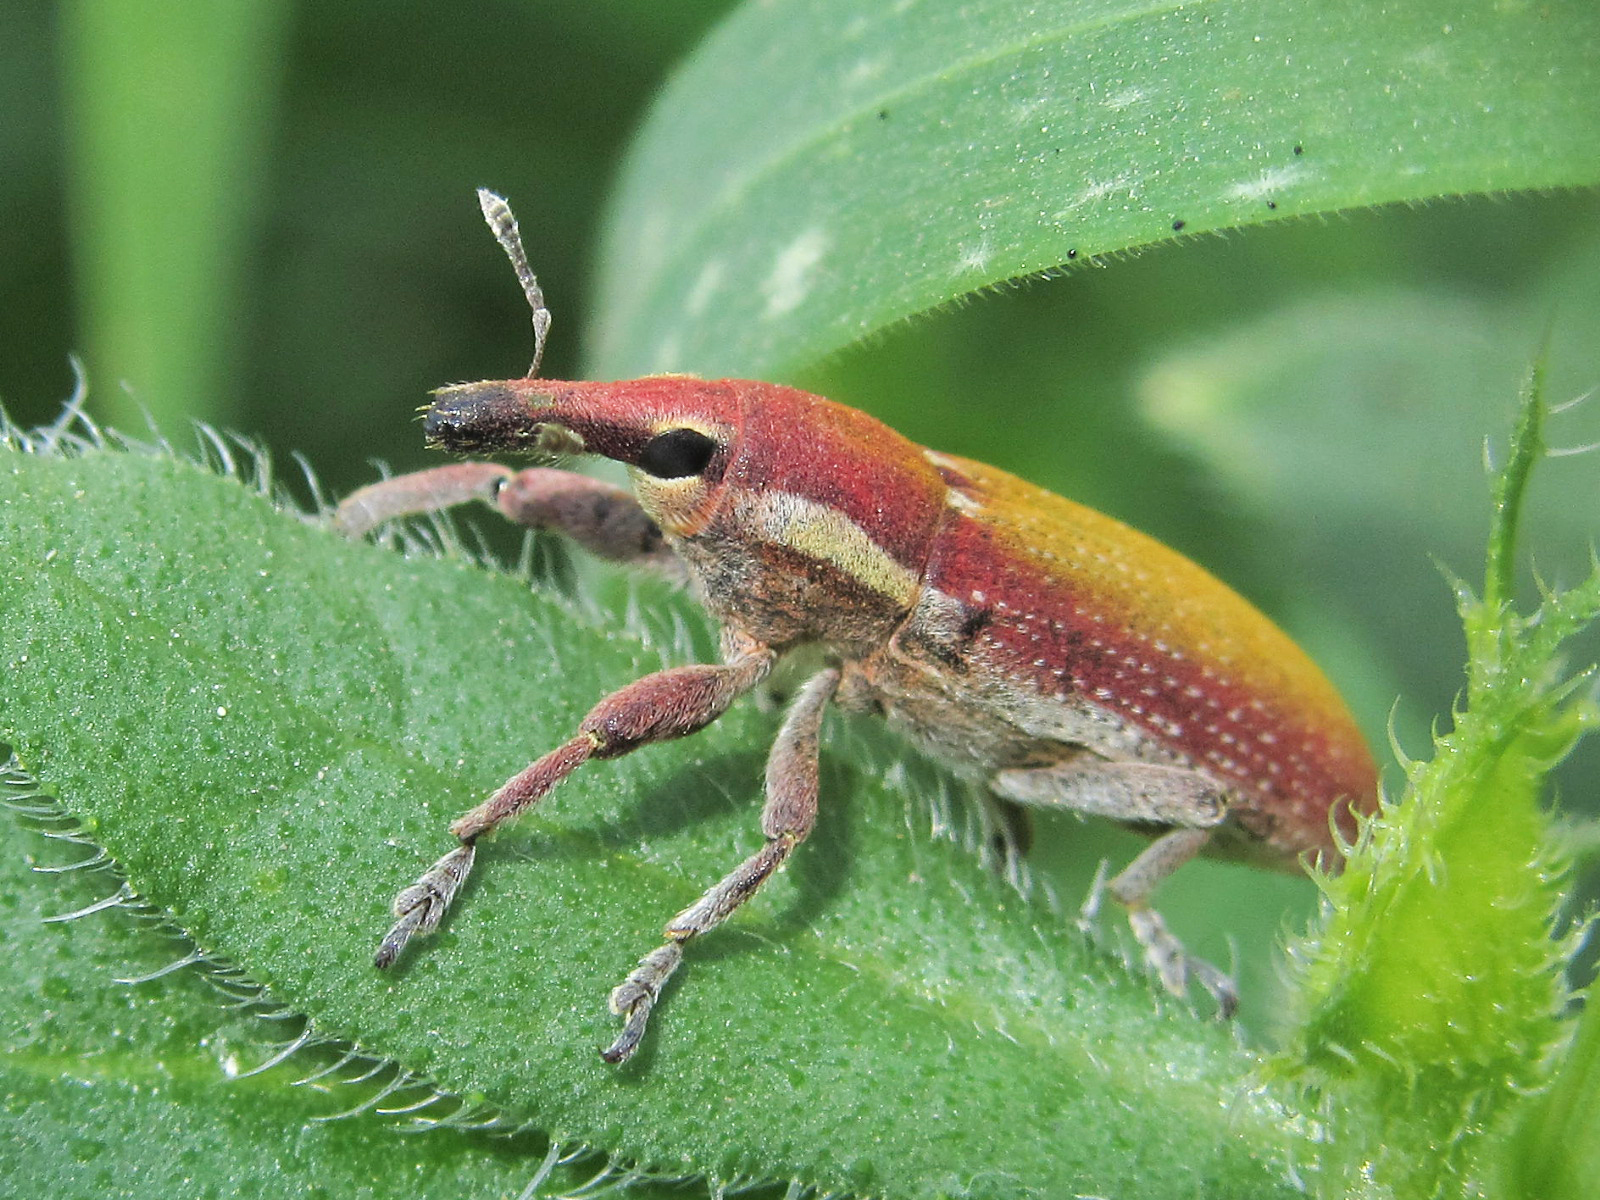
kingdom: Animalia
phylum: Arthropoda
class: Insecta
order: Coleoptera
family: Curculionidae
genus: Lixus
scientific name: Lixus vilis
